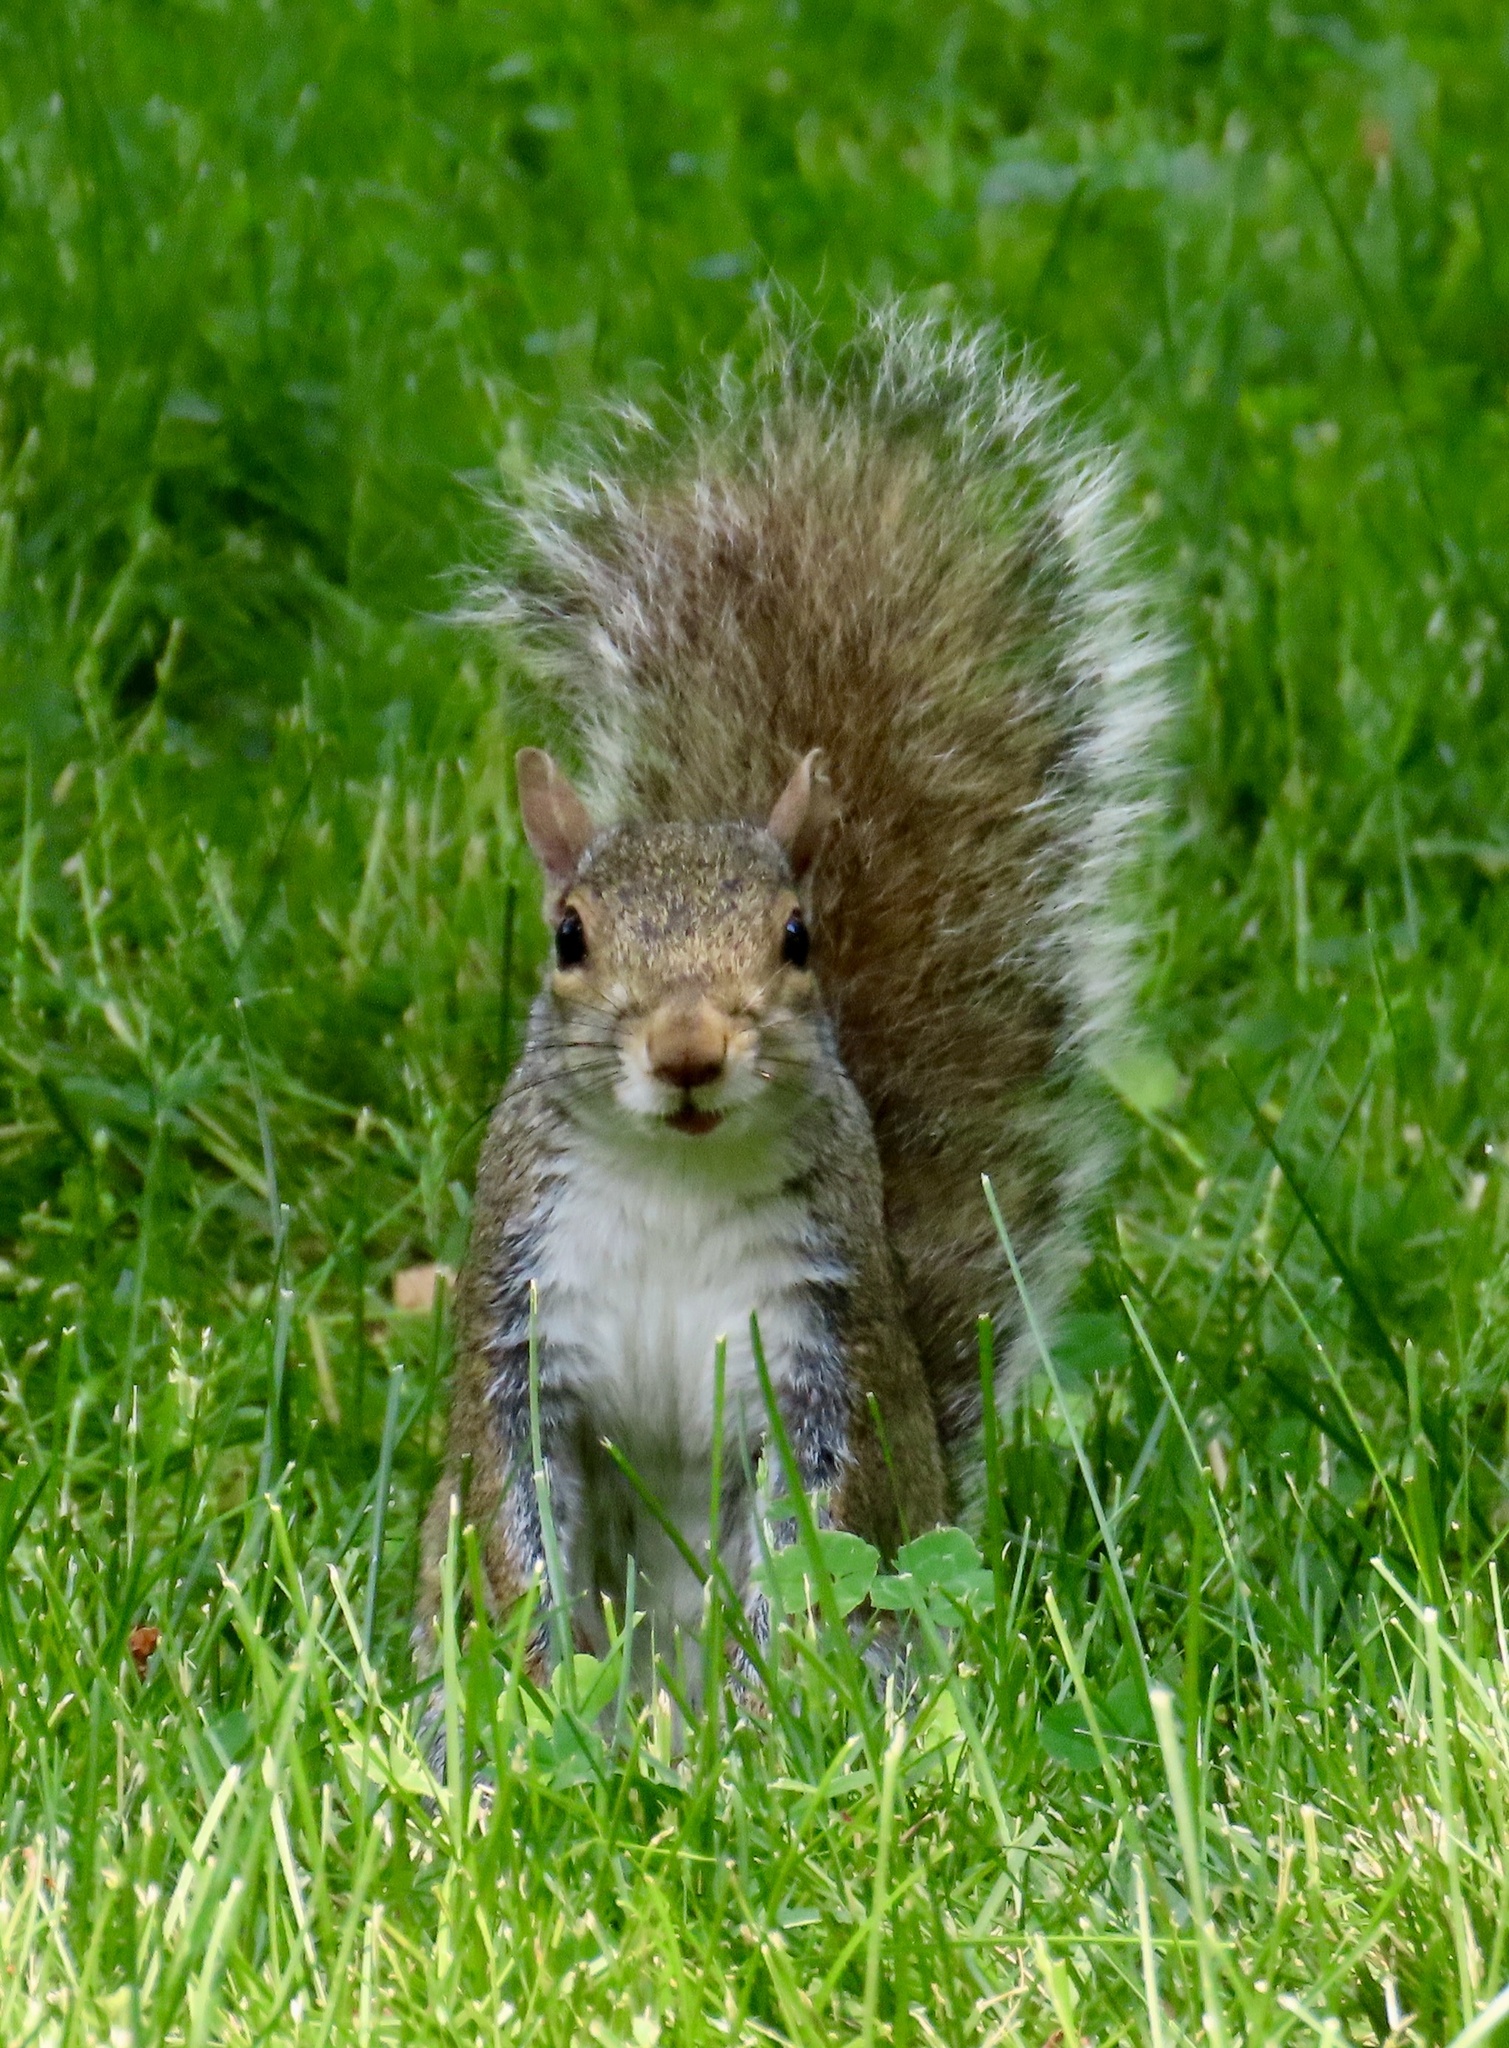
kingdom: Animalia
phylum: Chordata
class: Mammalia
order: Rodentia
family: Sciuridae
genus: Sciurus
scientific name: Sciurus carolinensis
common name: Eastern gray squirrel
